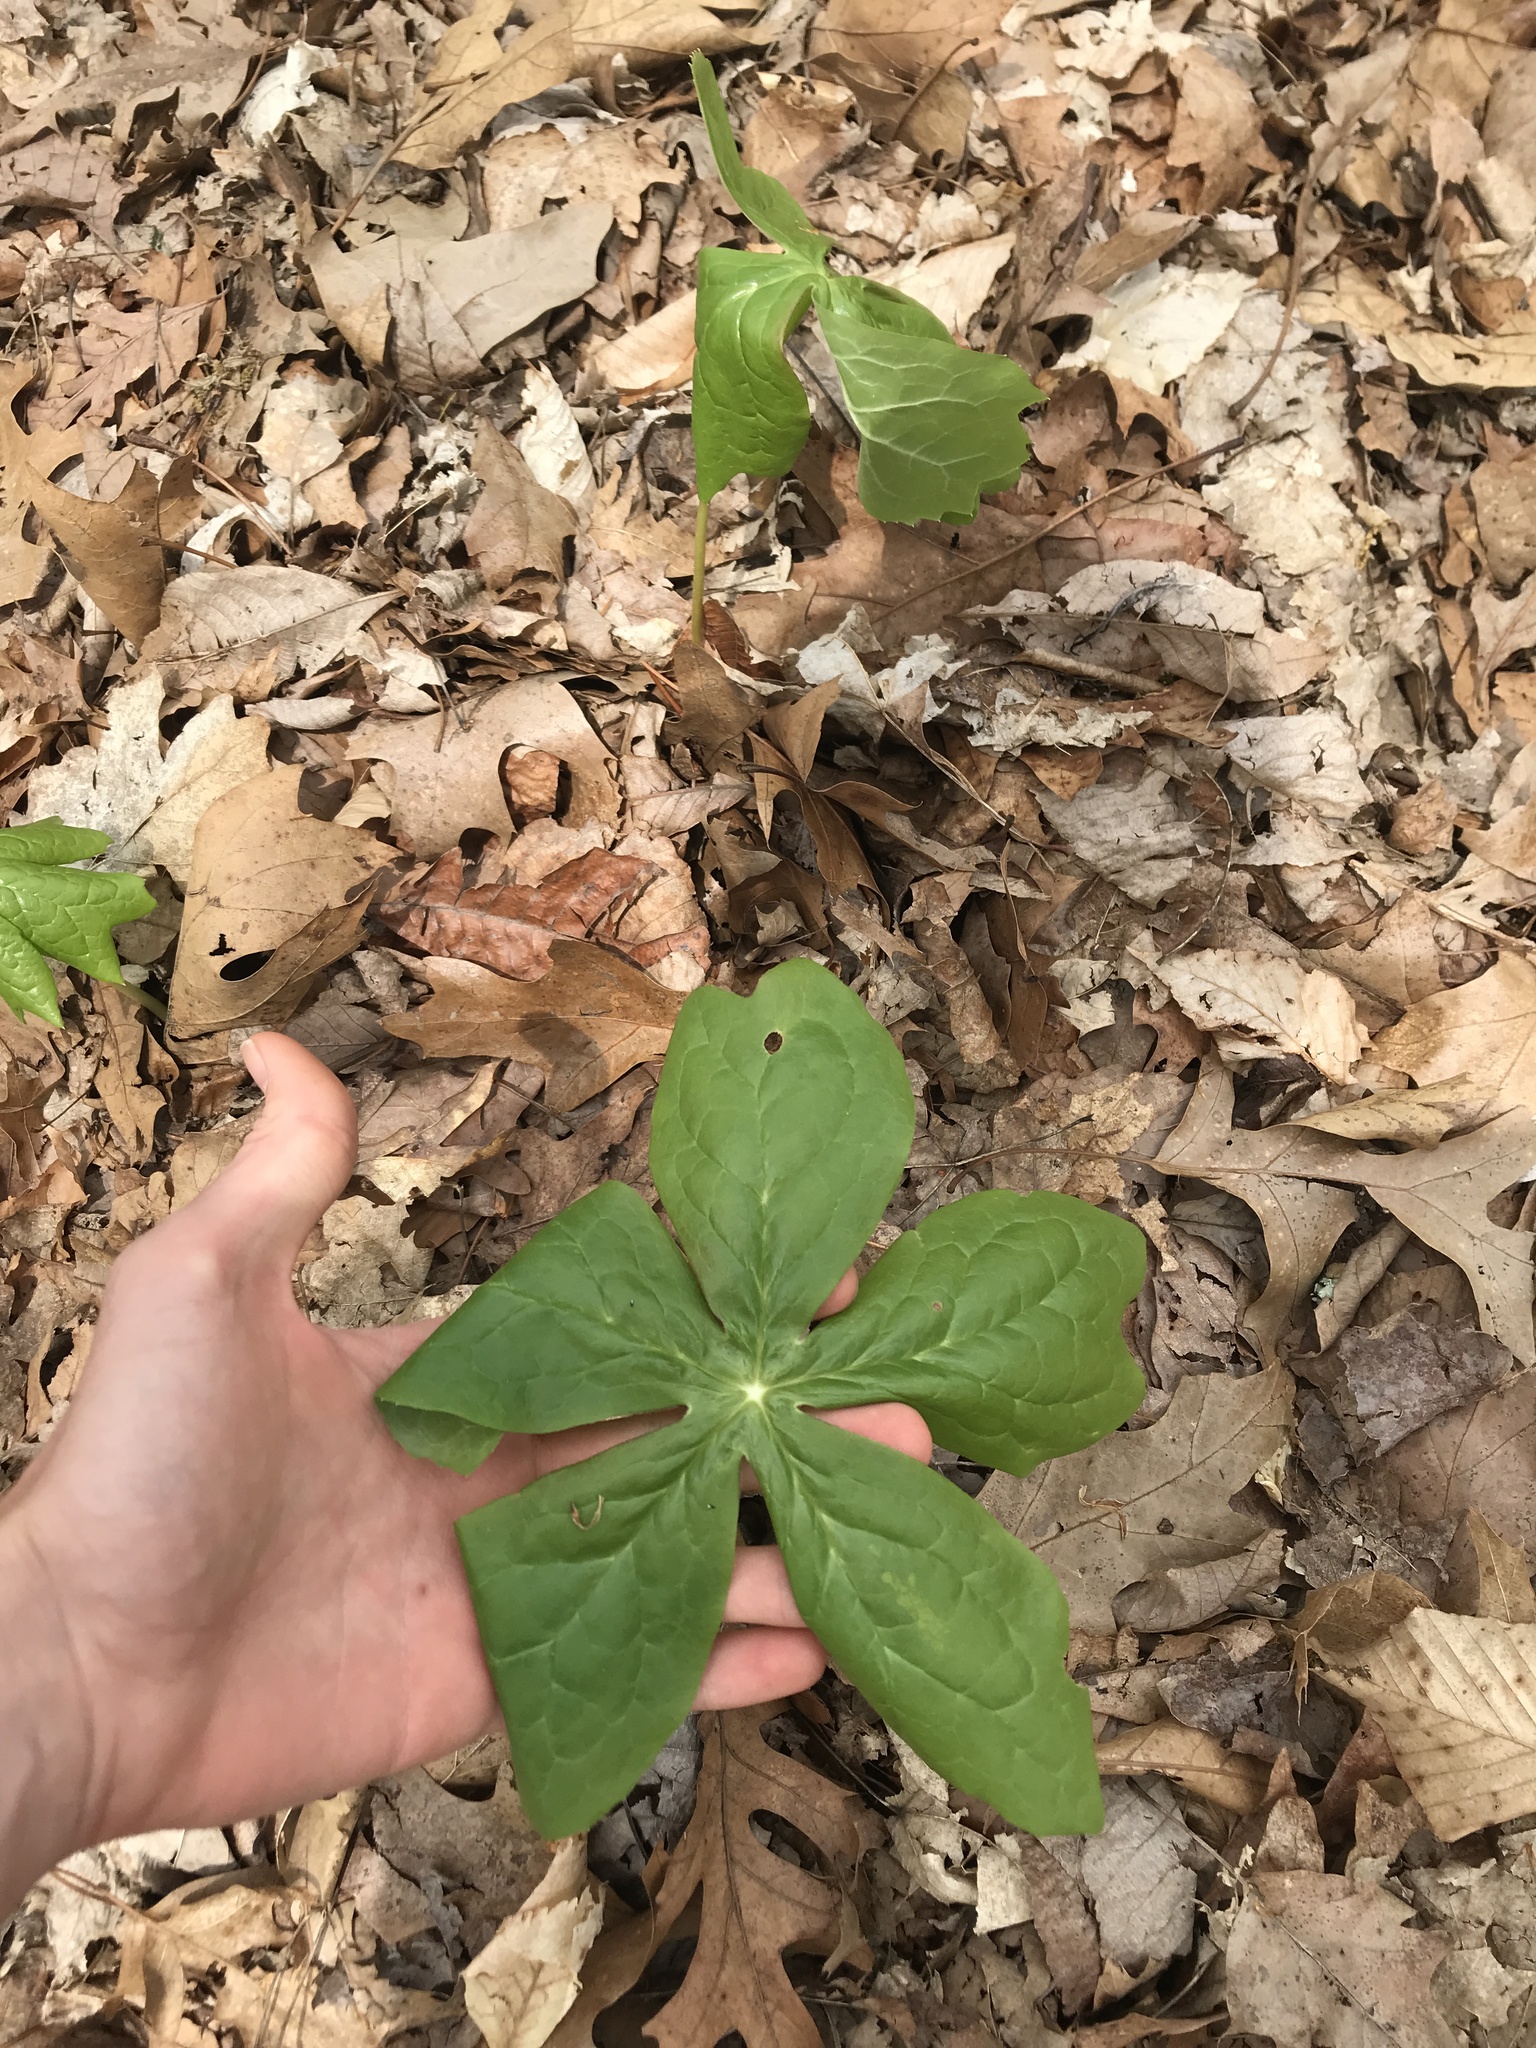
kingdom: Plantae
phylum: Tracheophyta
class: Magnoliopsida
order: Ranunculales
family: Berberidaceae
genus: Podophyllum
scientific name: Podophyllum peltatum
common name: Wild mandrake
